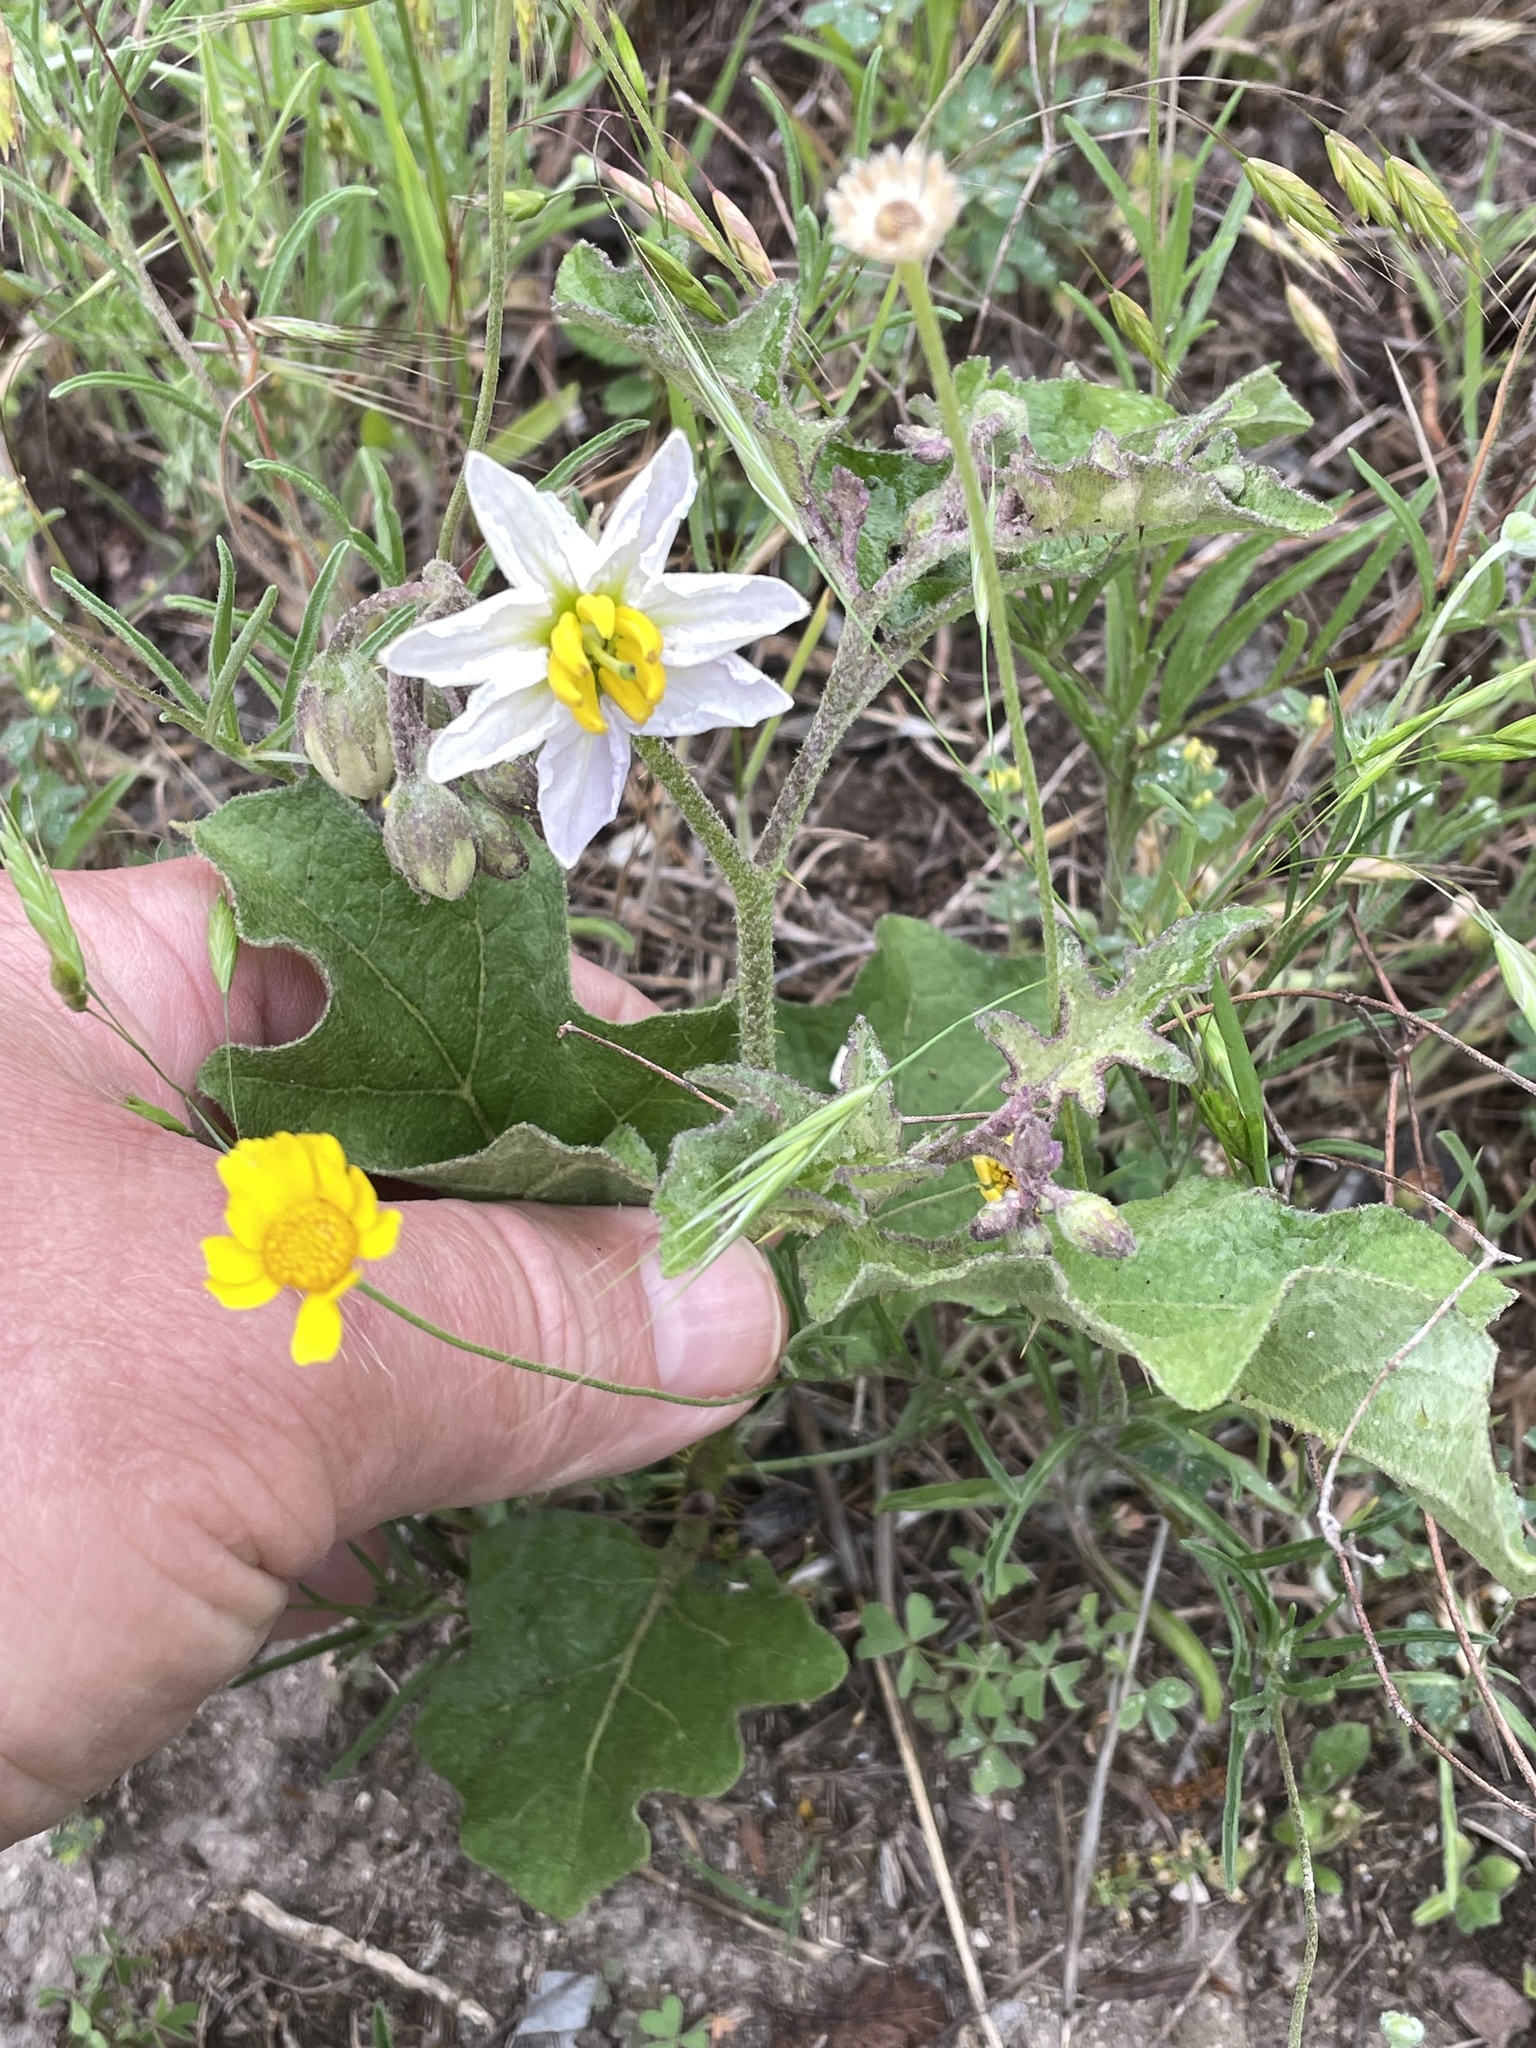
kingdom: Plantae
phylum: Tracheophyta
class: Magnoliopsida
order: Solanales
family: Solanaceae
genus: Solanum
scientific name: Solanum dimidiatum
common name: Carolina horse-nettle
